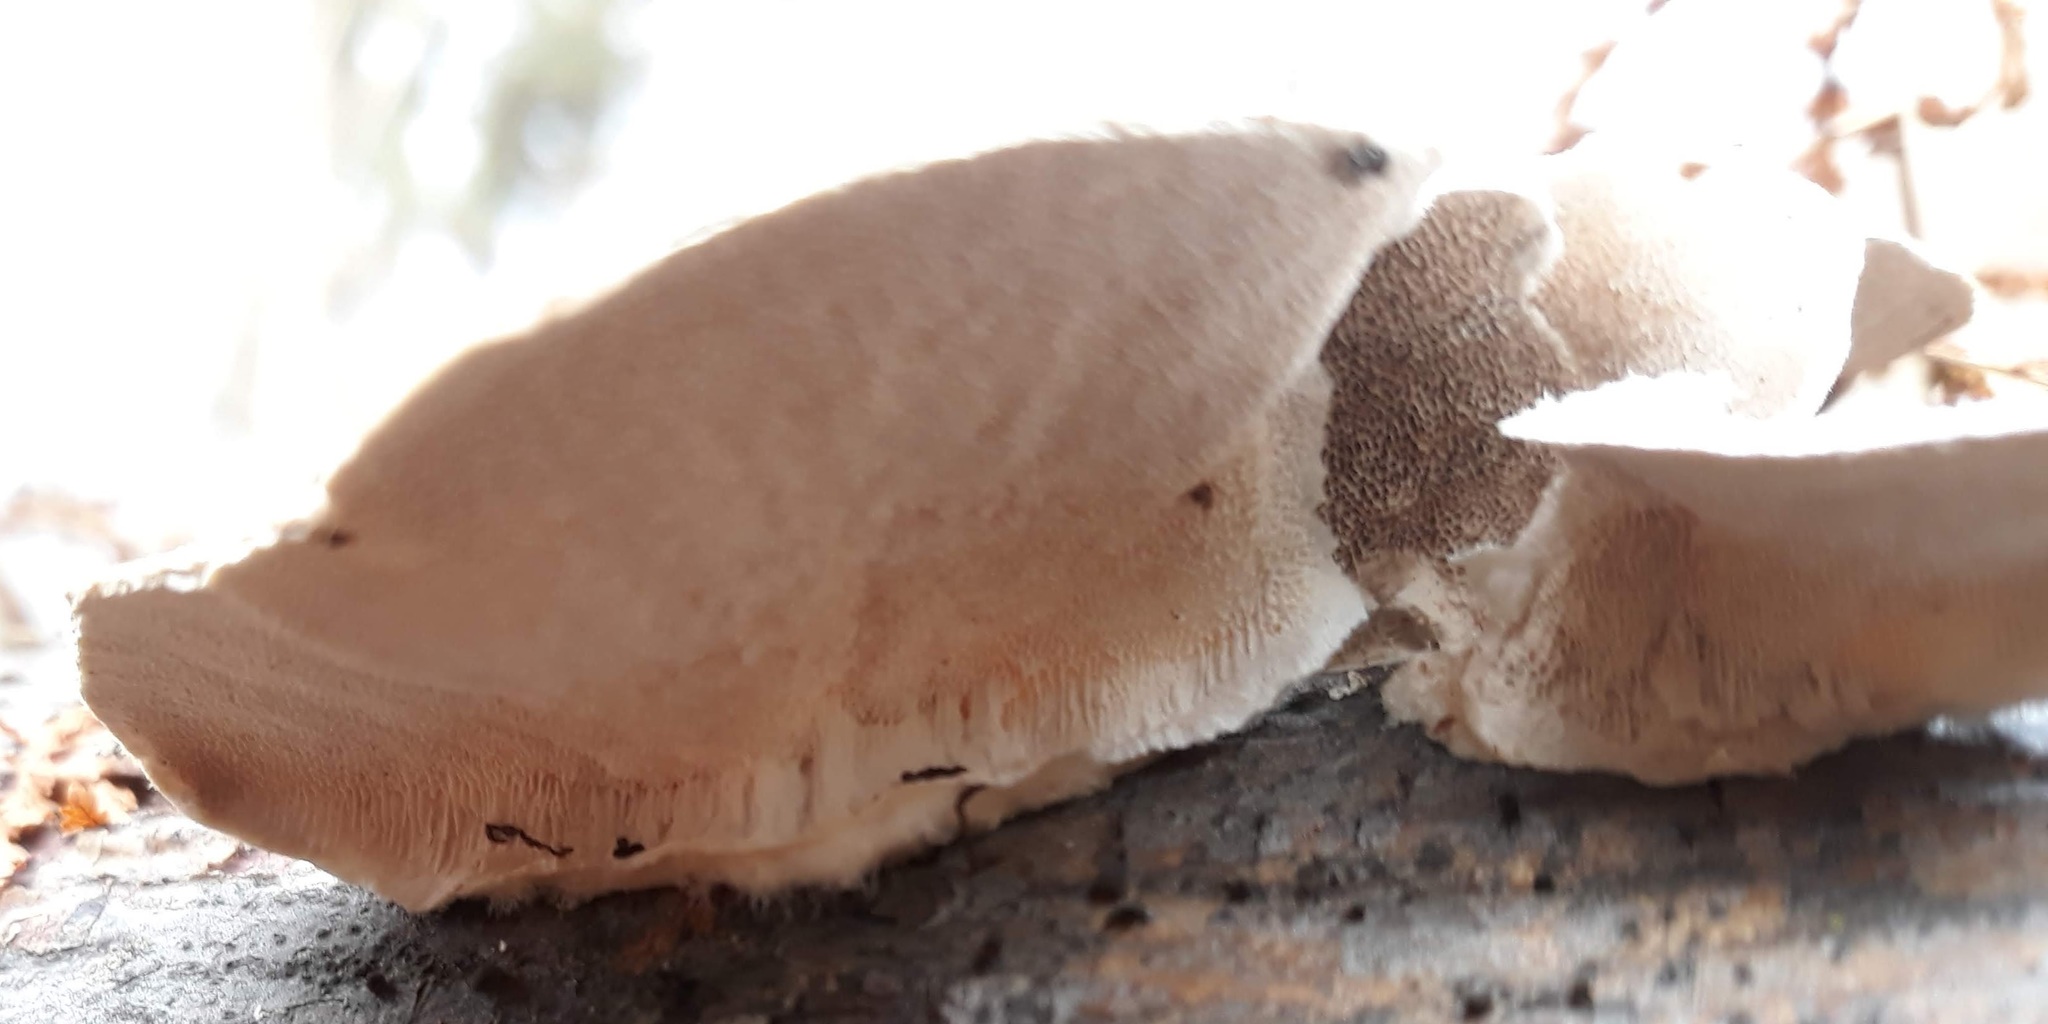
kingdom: Fungi
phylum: Basidiomycota
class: Agaricomycetes
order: Polyporales
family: Polyporaceae
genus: Trametes
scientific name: Trametes hirsuta
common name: Hairy bracket
